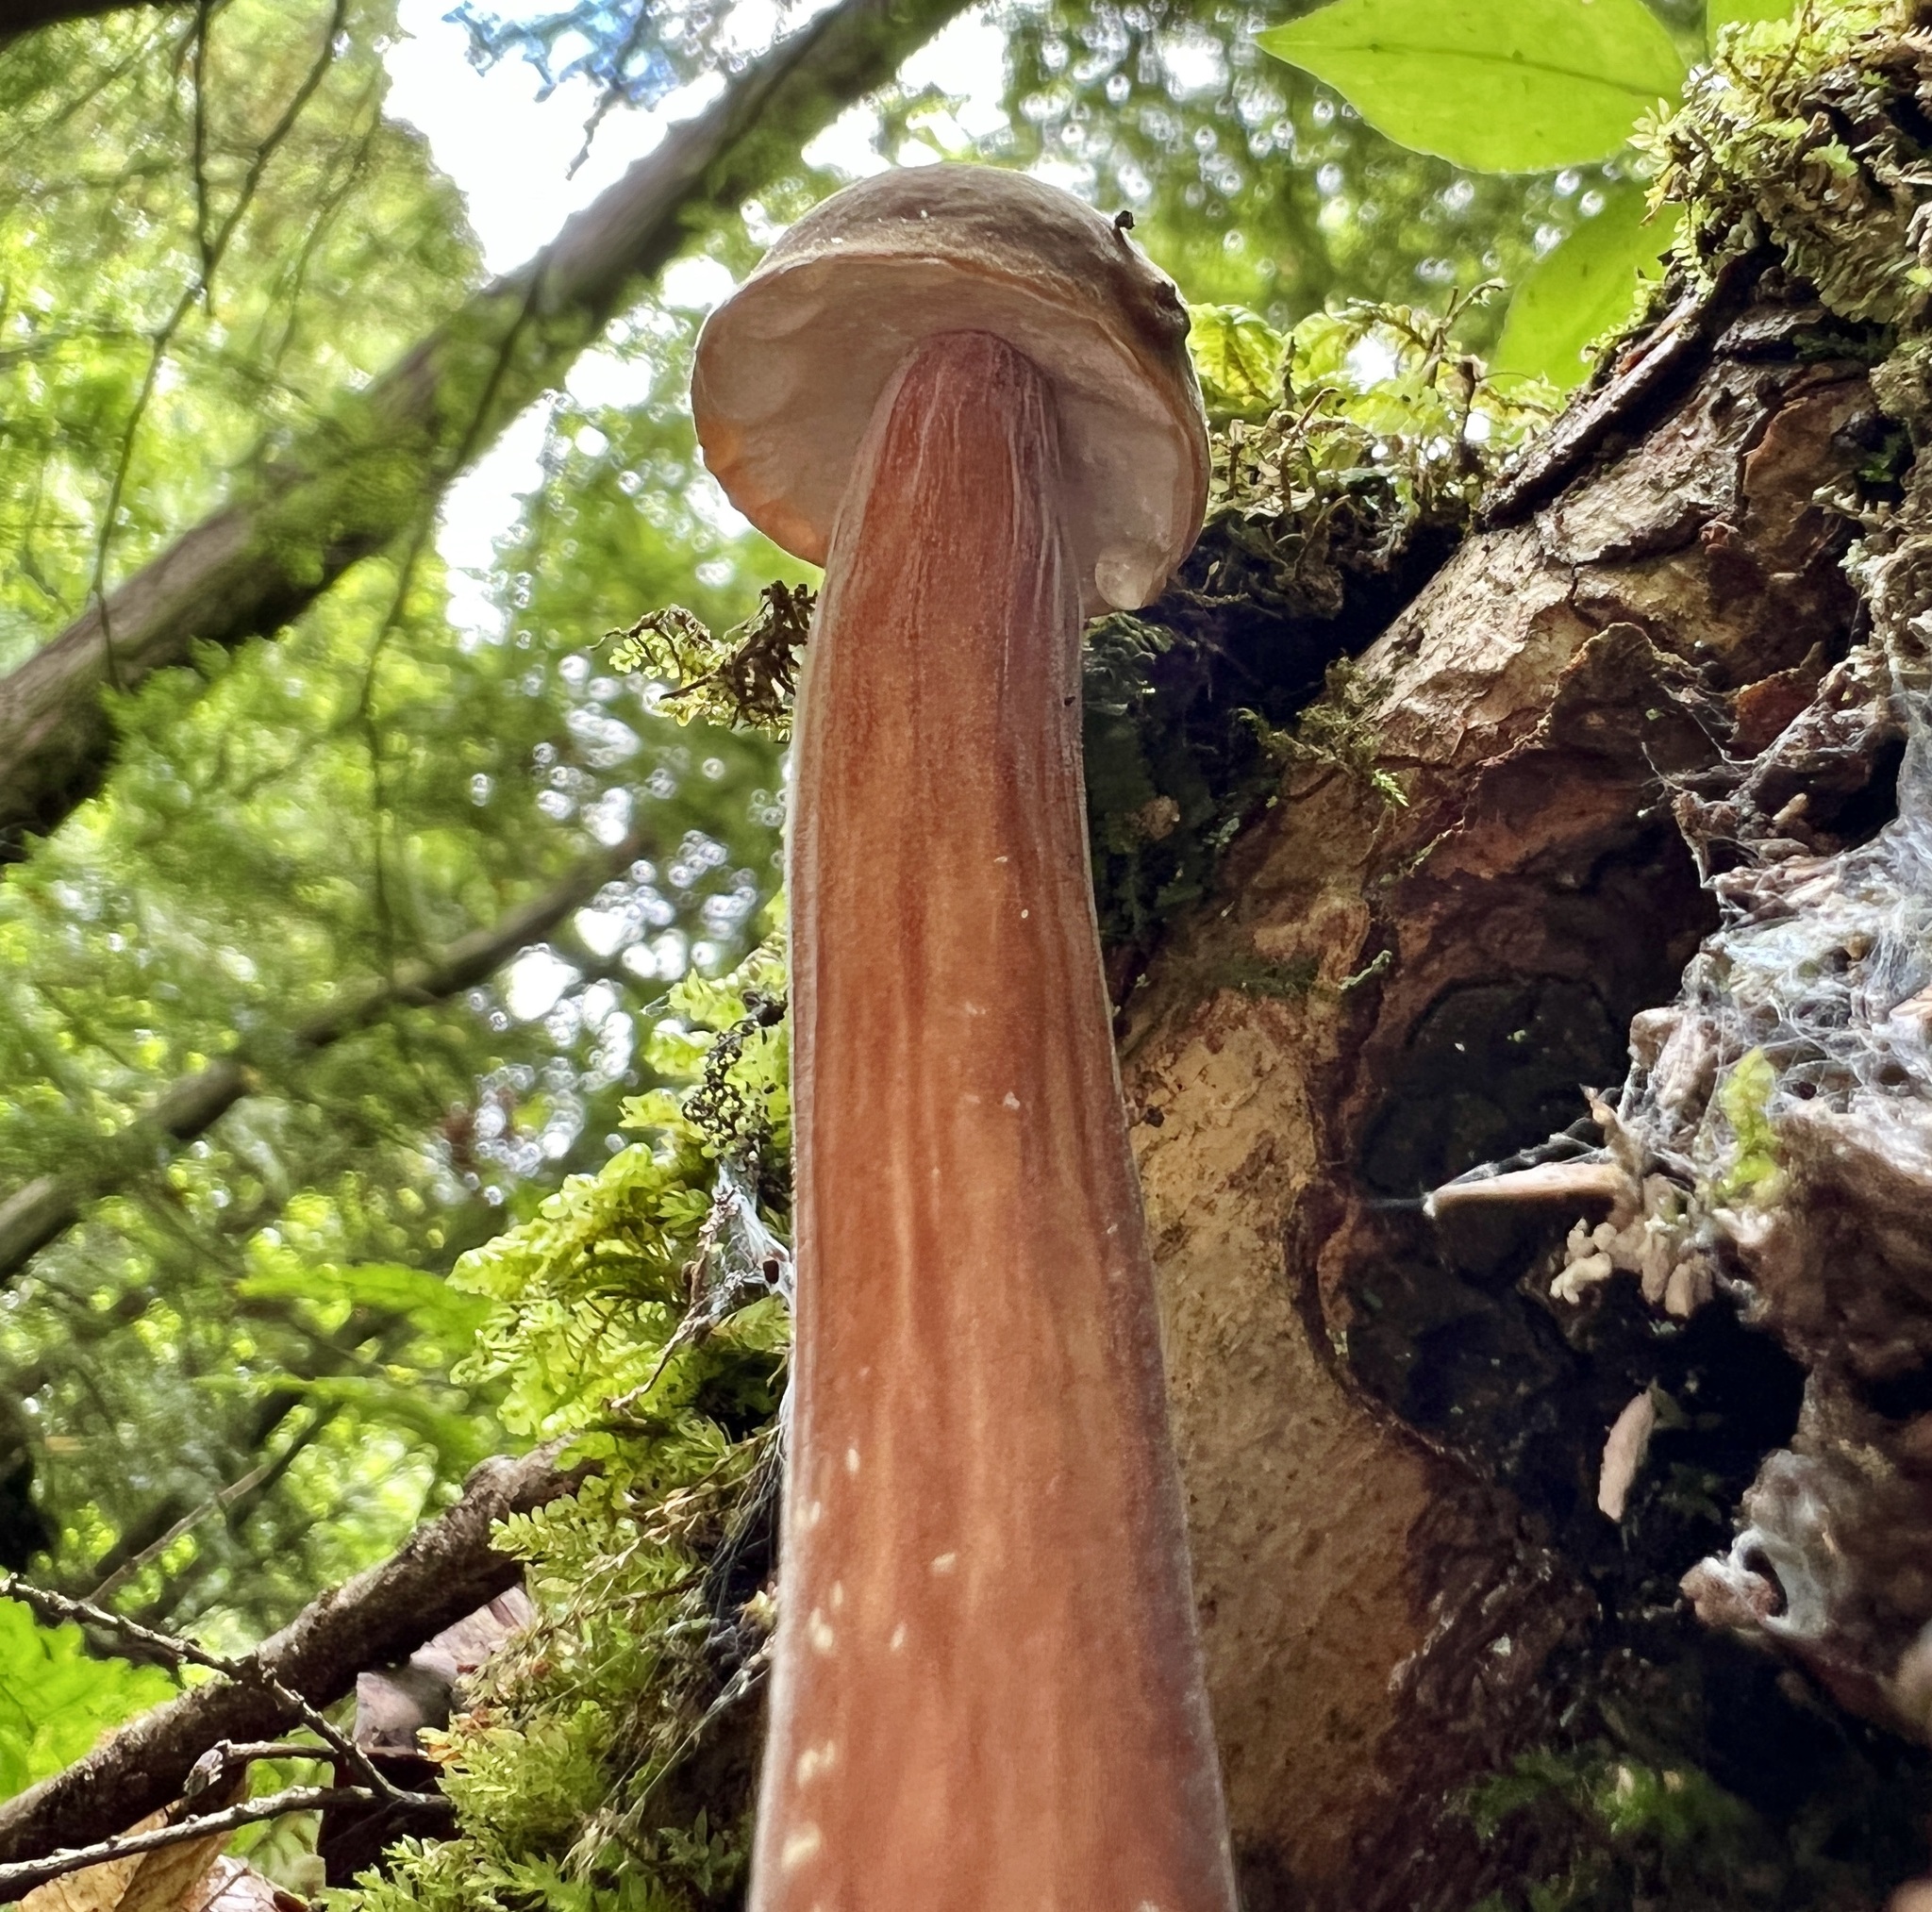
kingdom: Fungi
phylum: Basidiomycota
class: Agaricomycetes
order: Boletales
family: Boletaceae
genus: Xerocomellus
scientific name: Xerocomellus chrysenteron
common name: Red-cracking bolete
